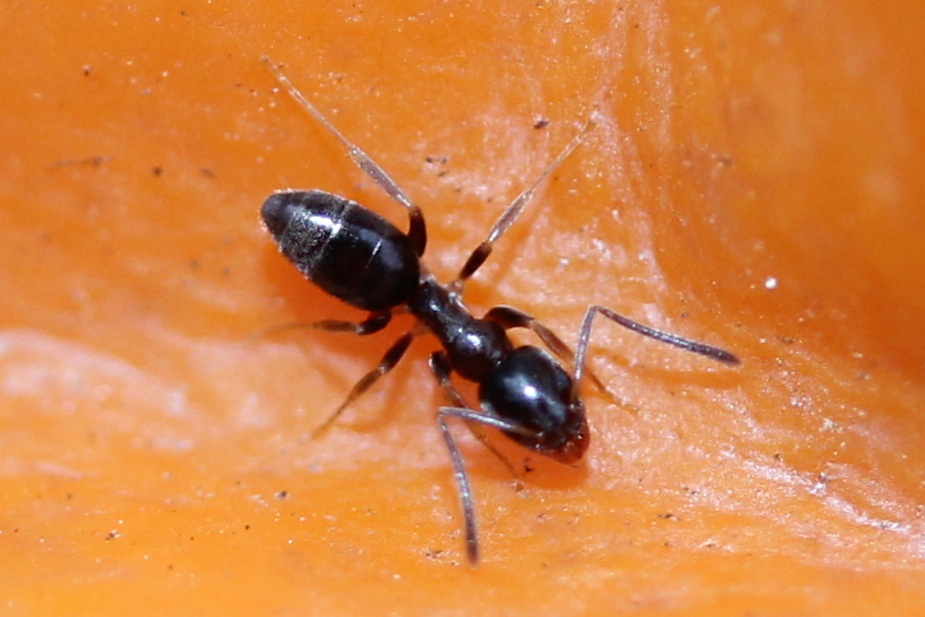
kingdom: Animalia
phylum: Arthropoda
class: Insecta
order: Hymenoptera
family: Formicidae
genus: Tapinoma
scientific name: Tapinoma sessile
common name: Odorous house ant
